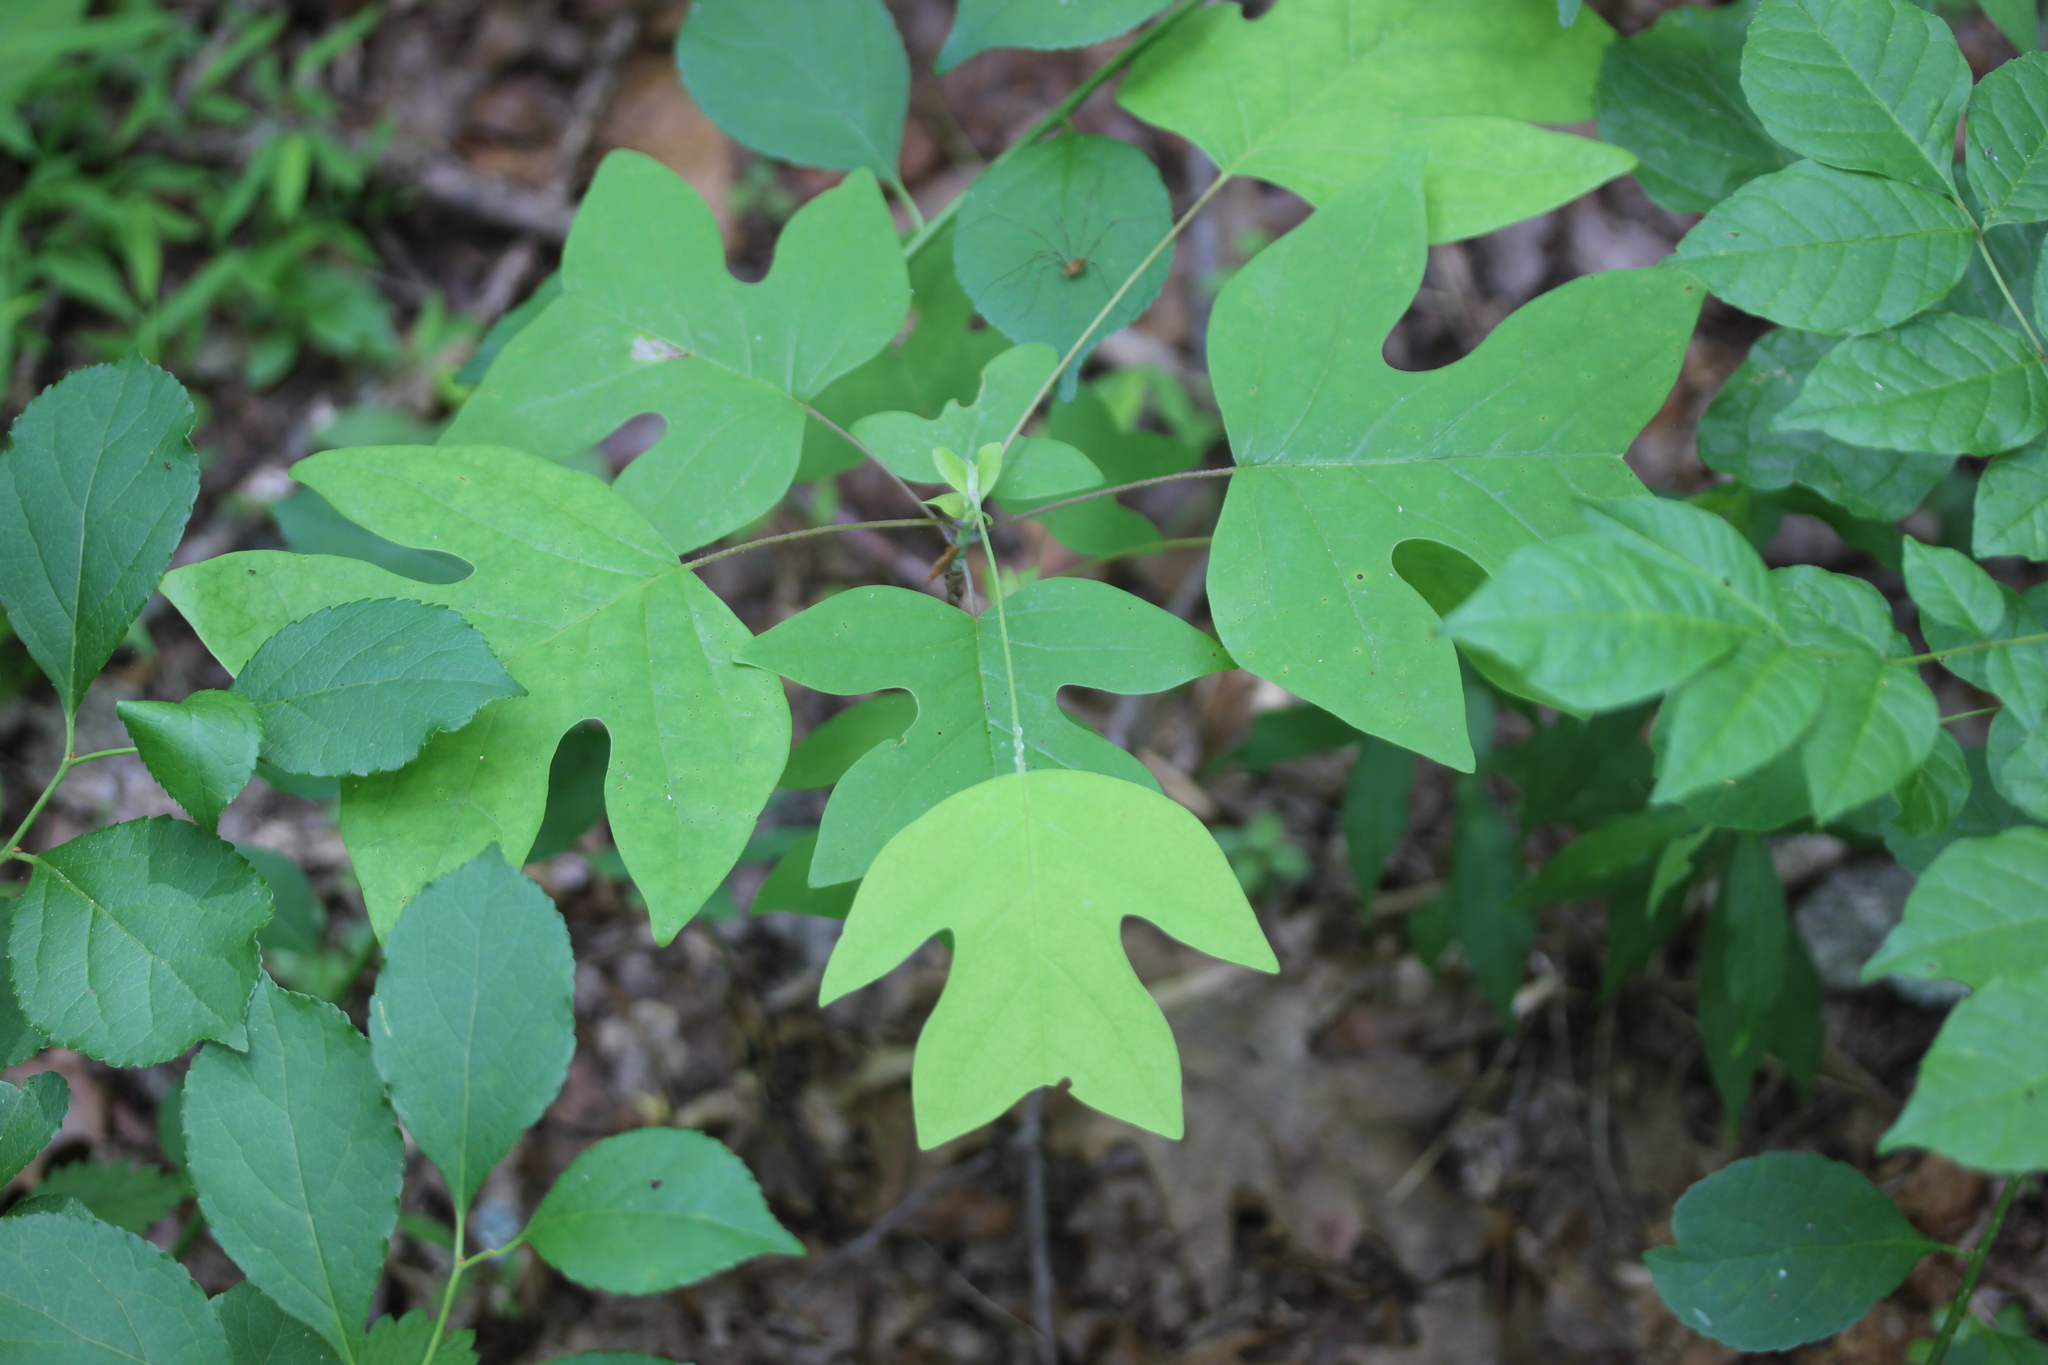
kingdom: Plantae
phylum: Tracheophyta
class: Magnoliopsida
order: Magnoliales
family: Magnoliaceae
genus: Liriodendron
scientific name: Liriodendron tulipifera
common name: Tulip tree
